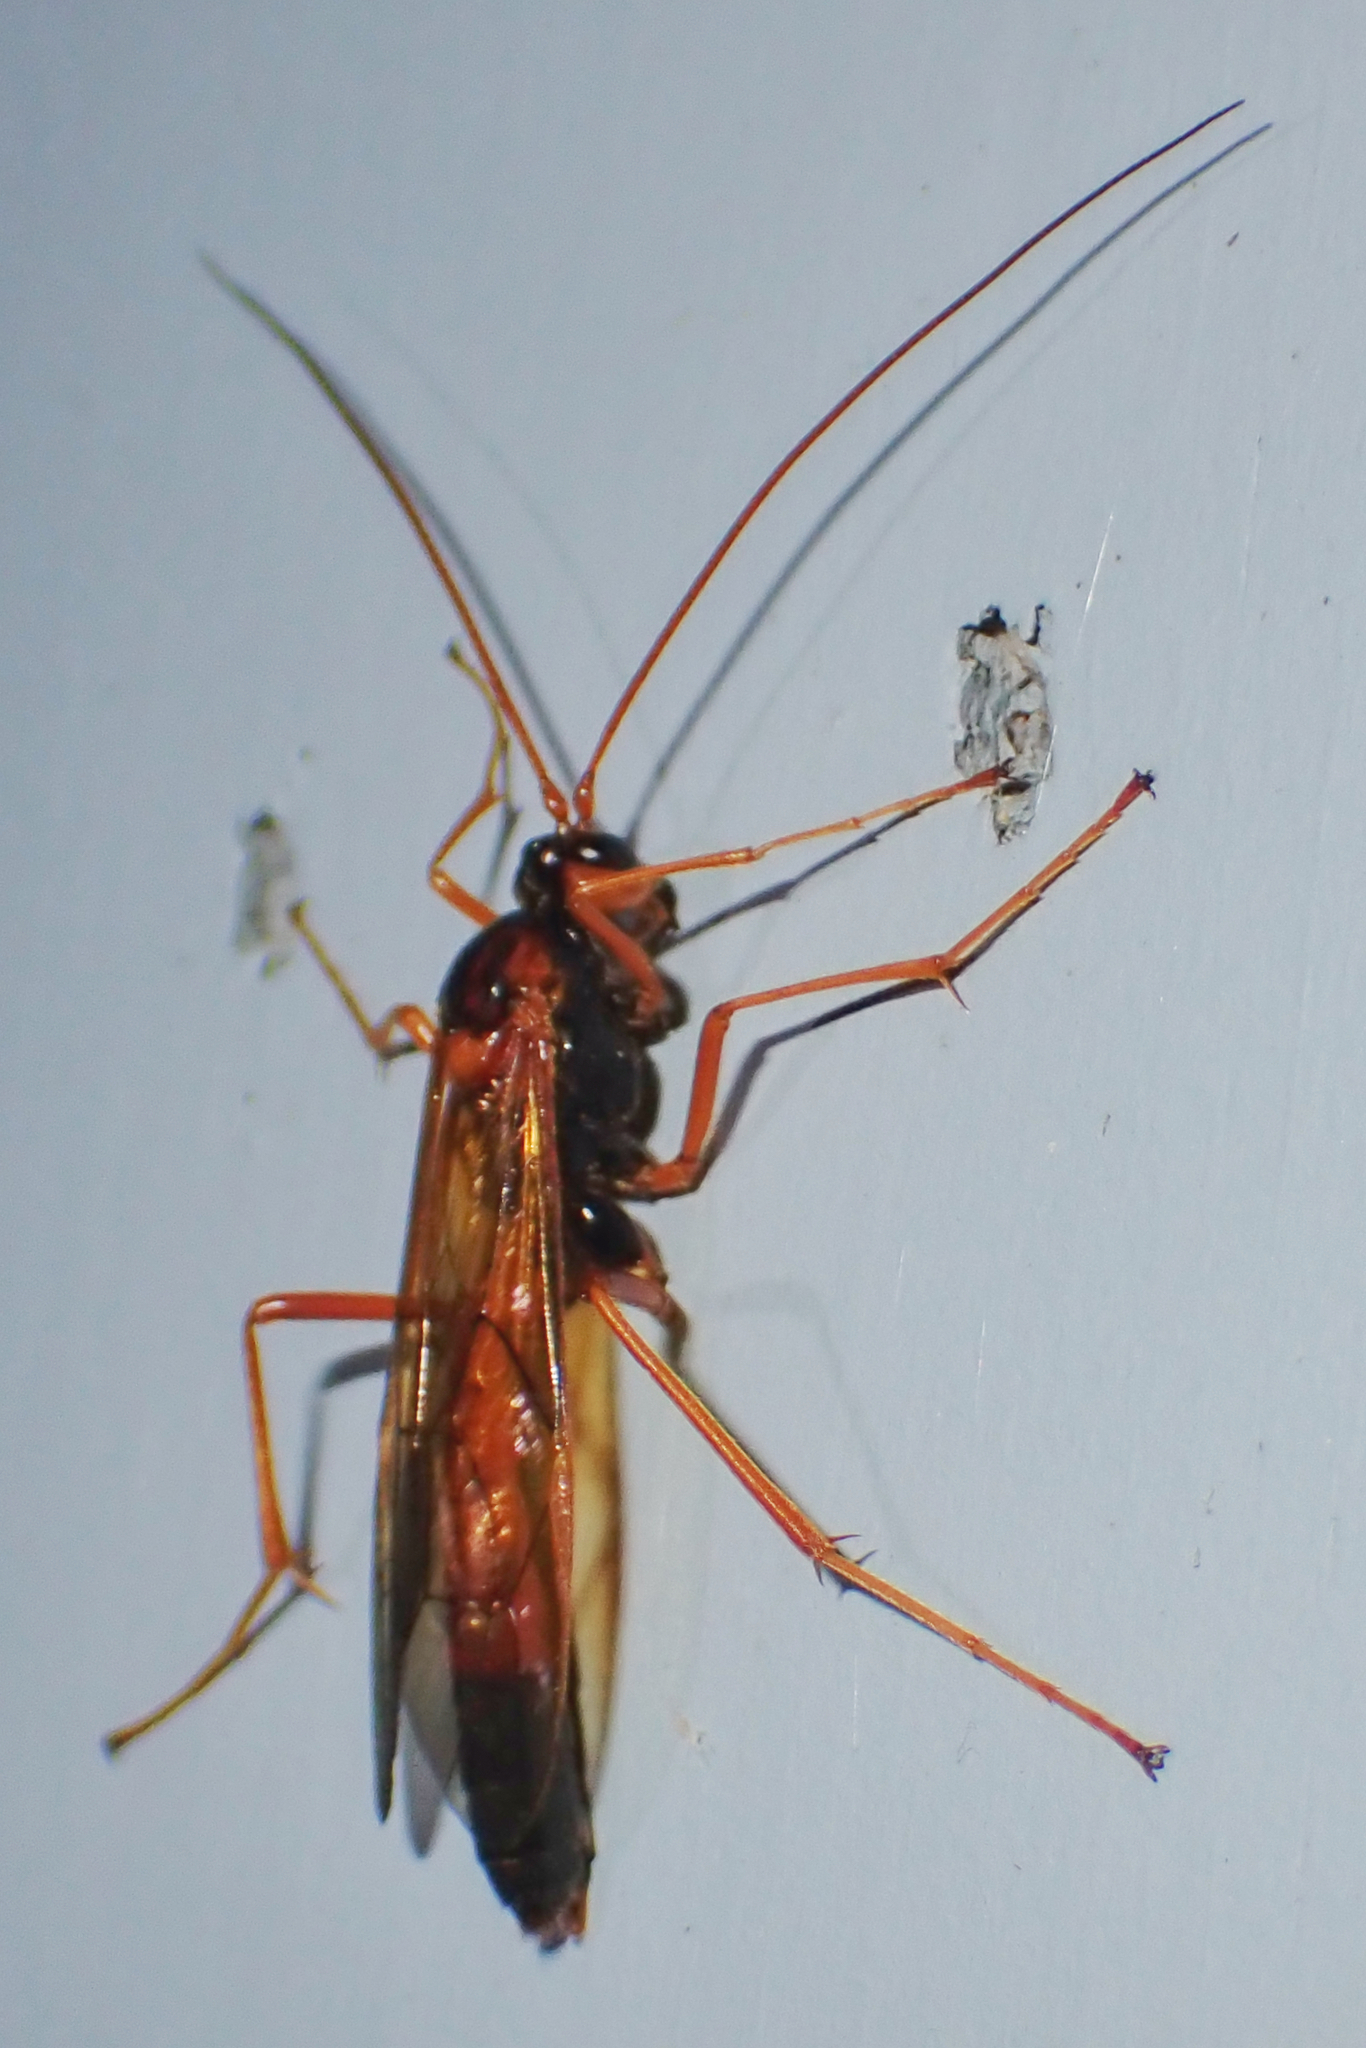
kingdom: Animalia
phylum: Arthropoda
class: Insecta
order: Hymenoptera
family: Ichneumonidae
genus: Opheltes
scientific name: Opheltes glaucopterus
